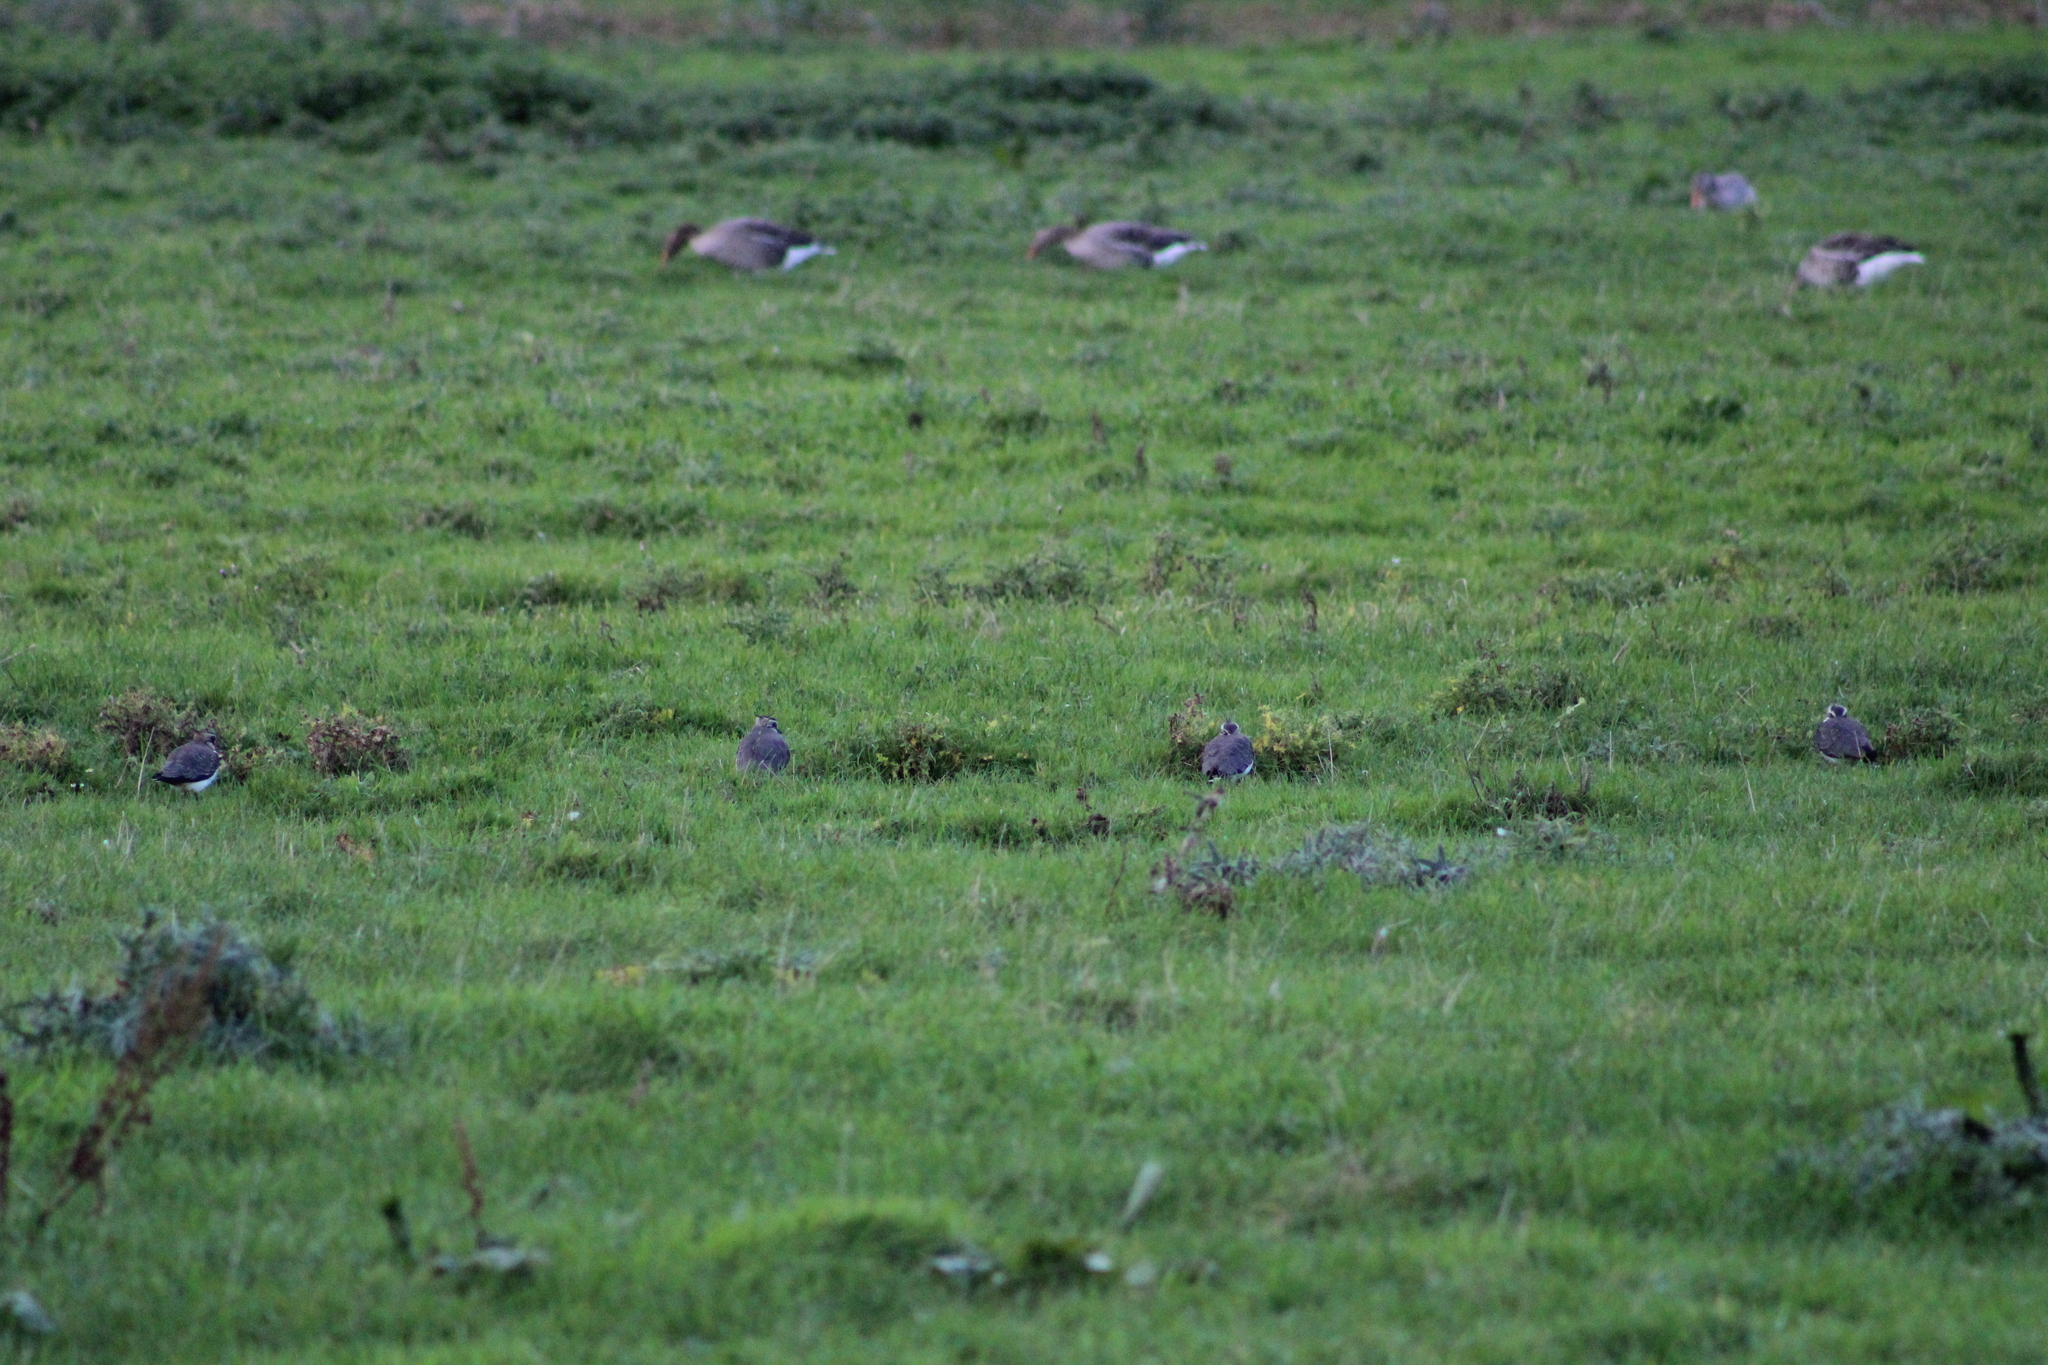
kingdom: Animalia
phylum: Chordata
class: Aves
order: Charadriiformes
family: Charadriidae
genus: Vanellus
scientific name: Vanellus vanellus
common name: Northern lapwing
